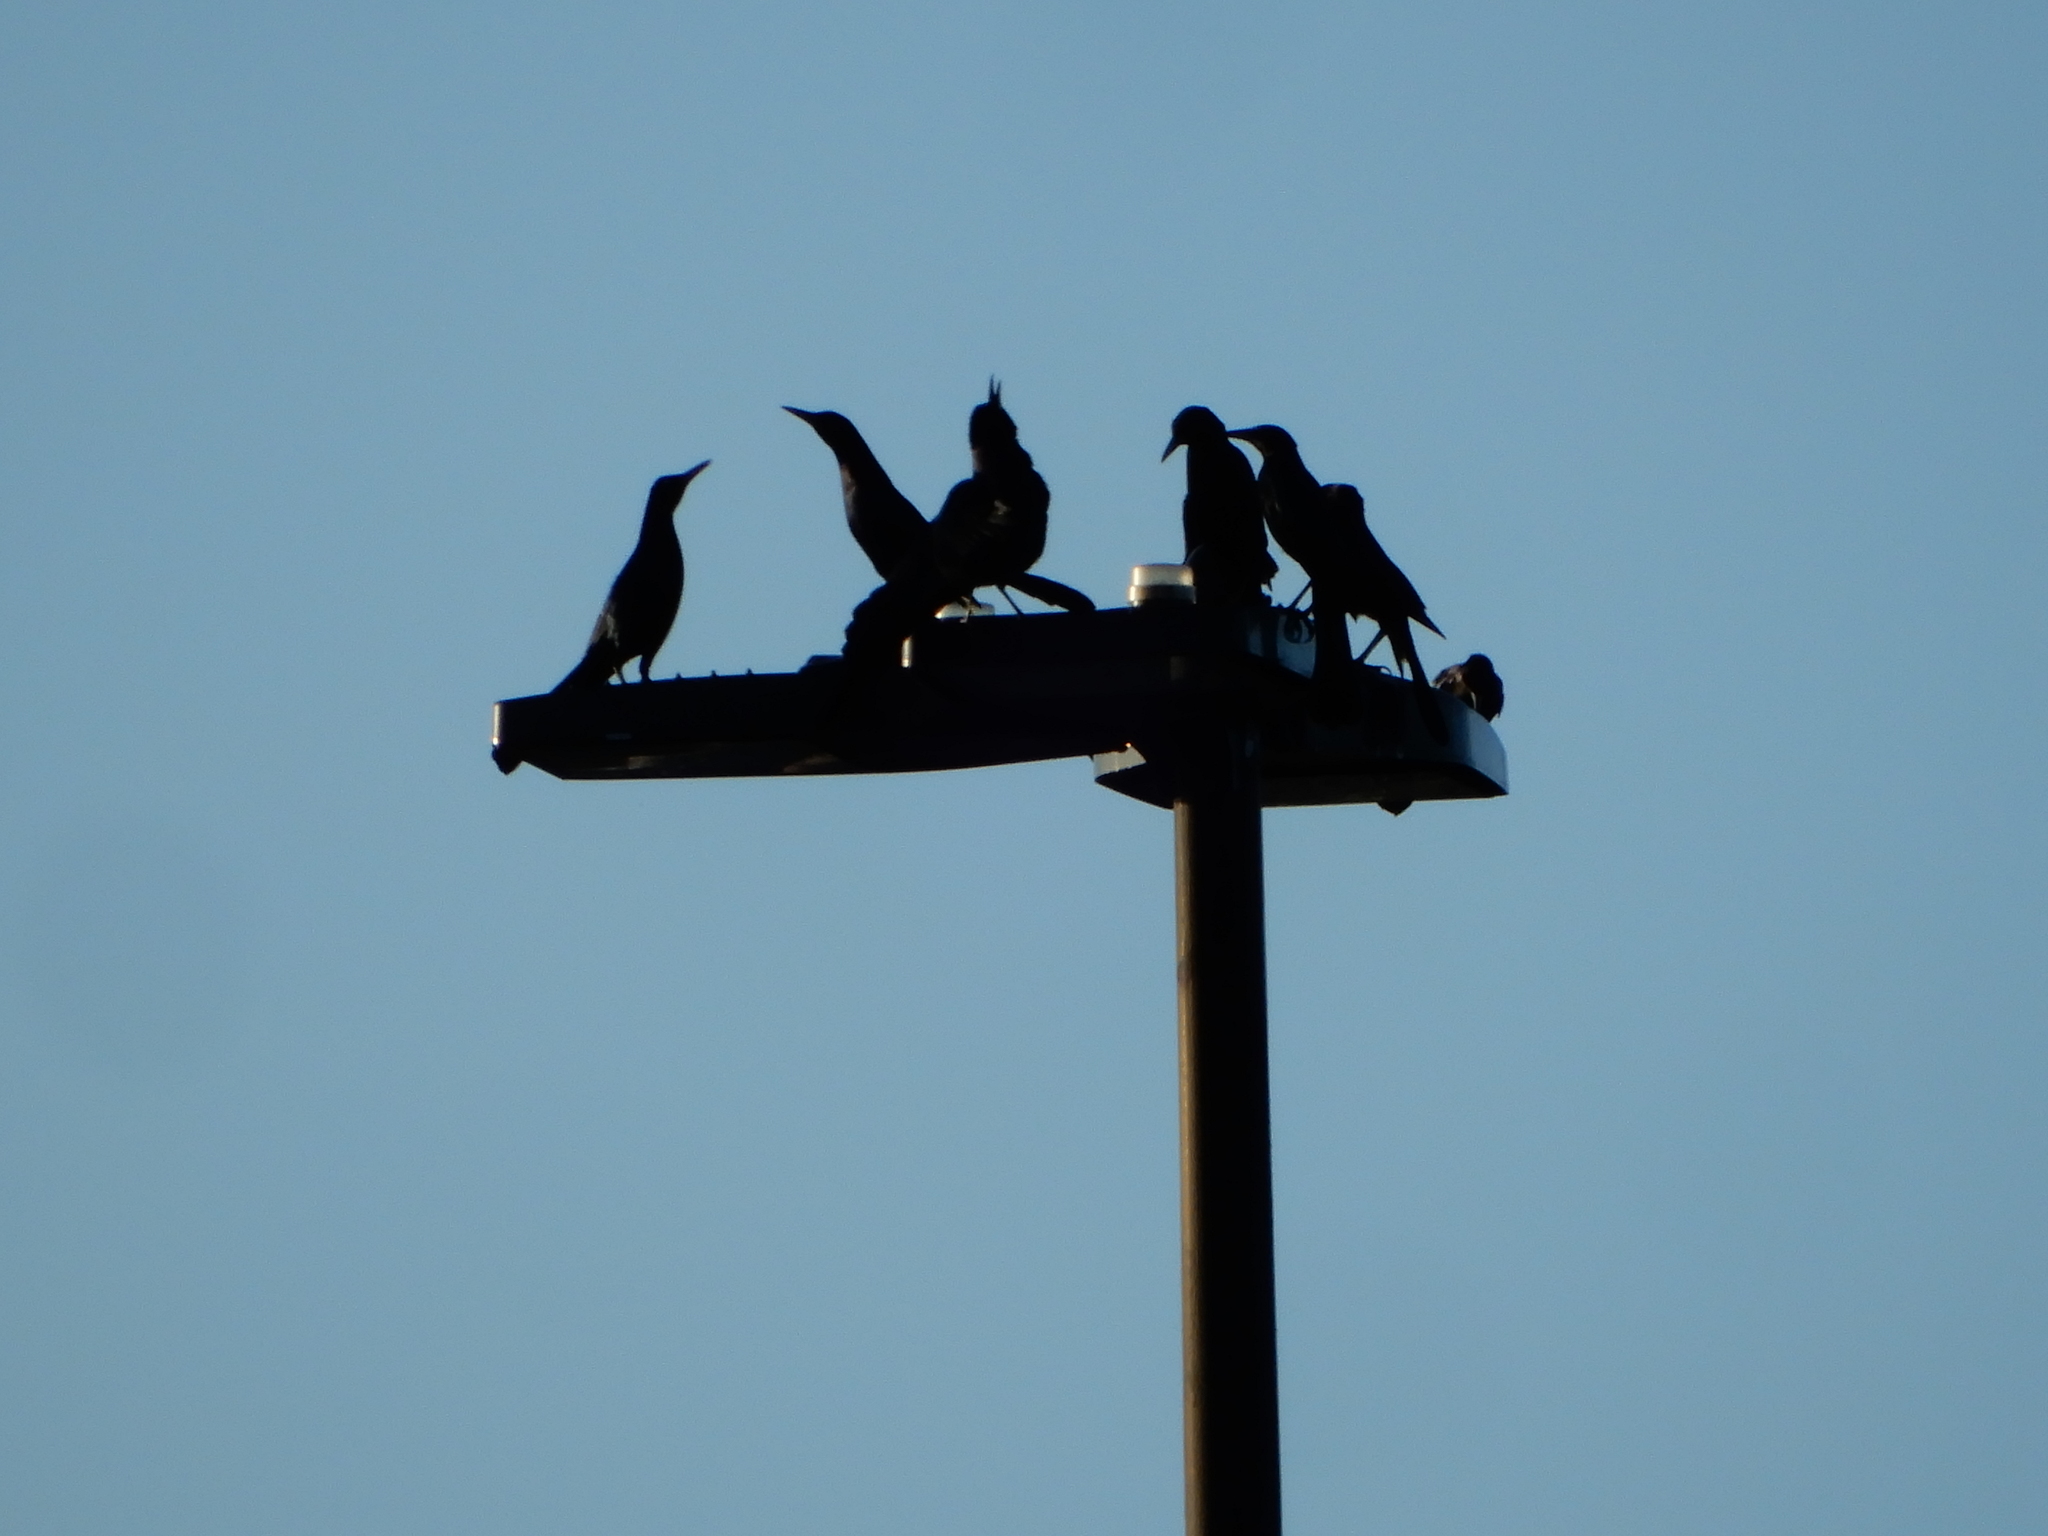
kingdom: Animalia
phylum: Chordata
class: Aves
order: Passeriformes
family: Icteridae
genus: Quiscalus
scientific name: Quiscalus major
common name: Boat-tailed grackle
